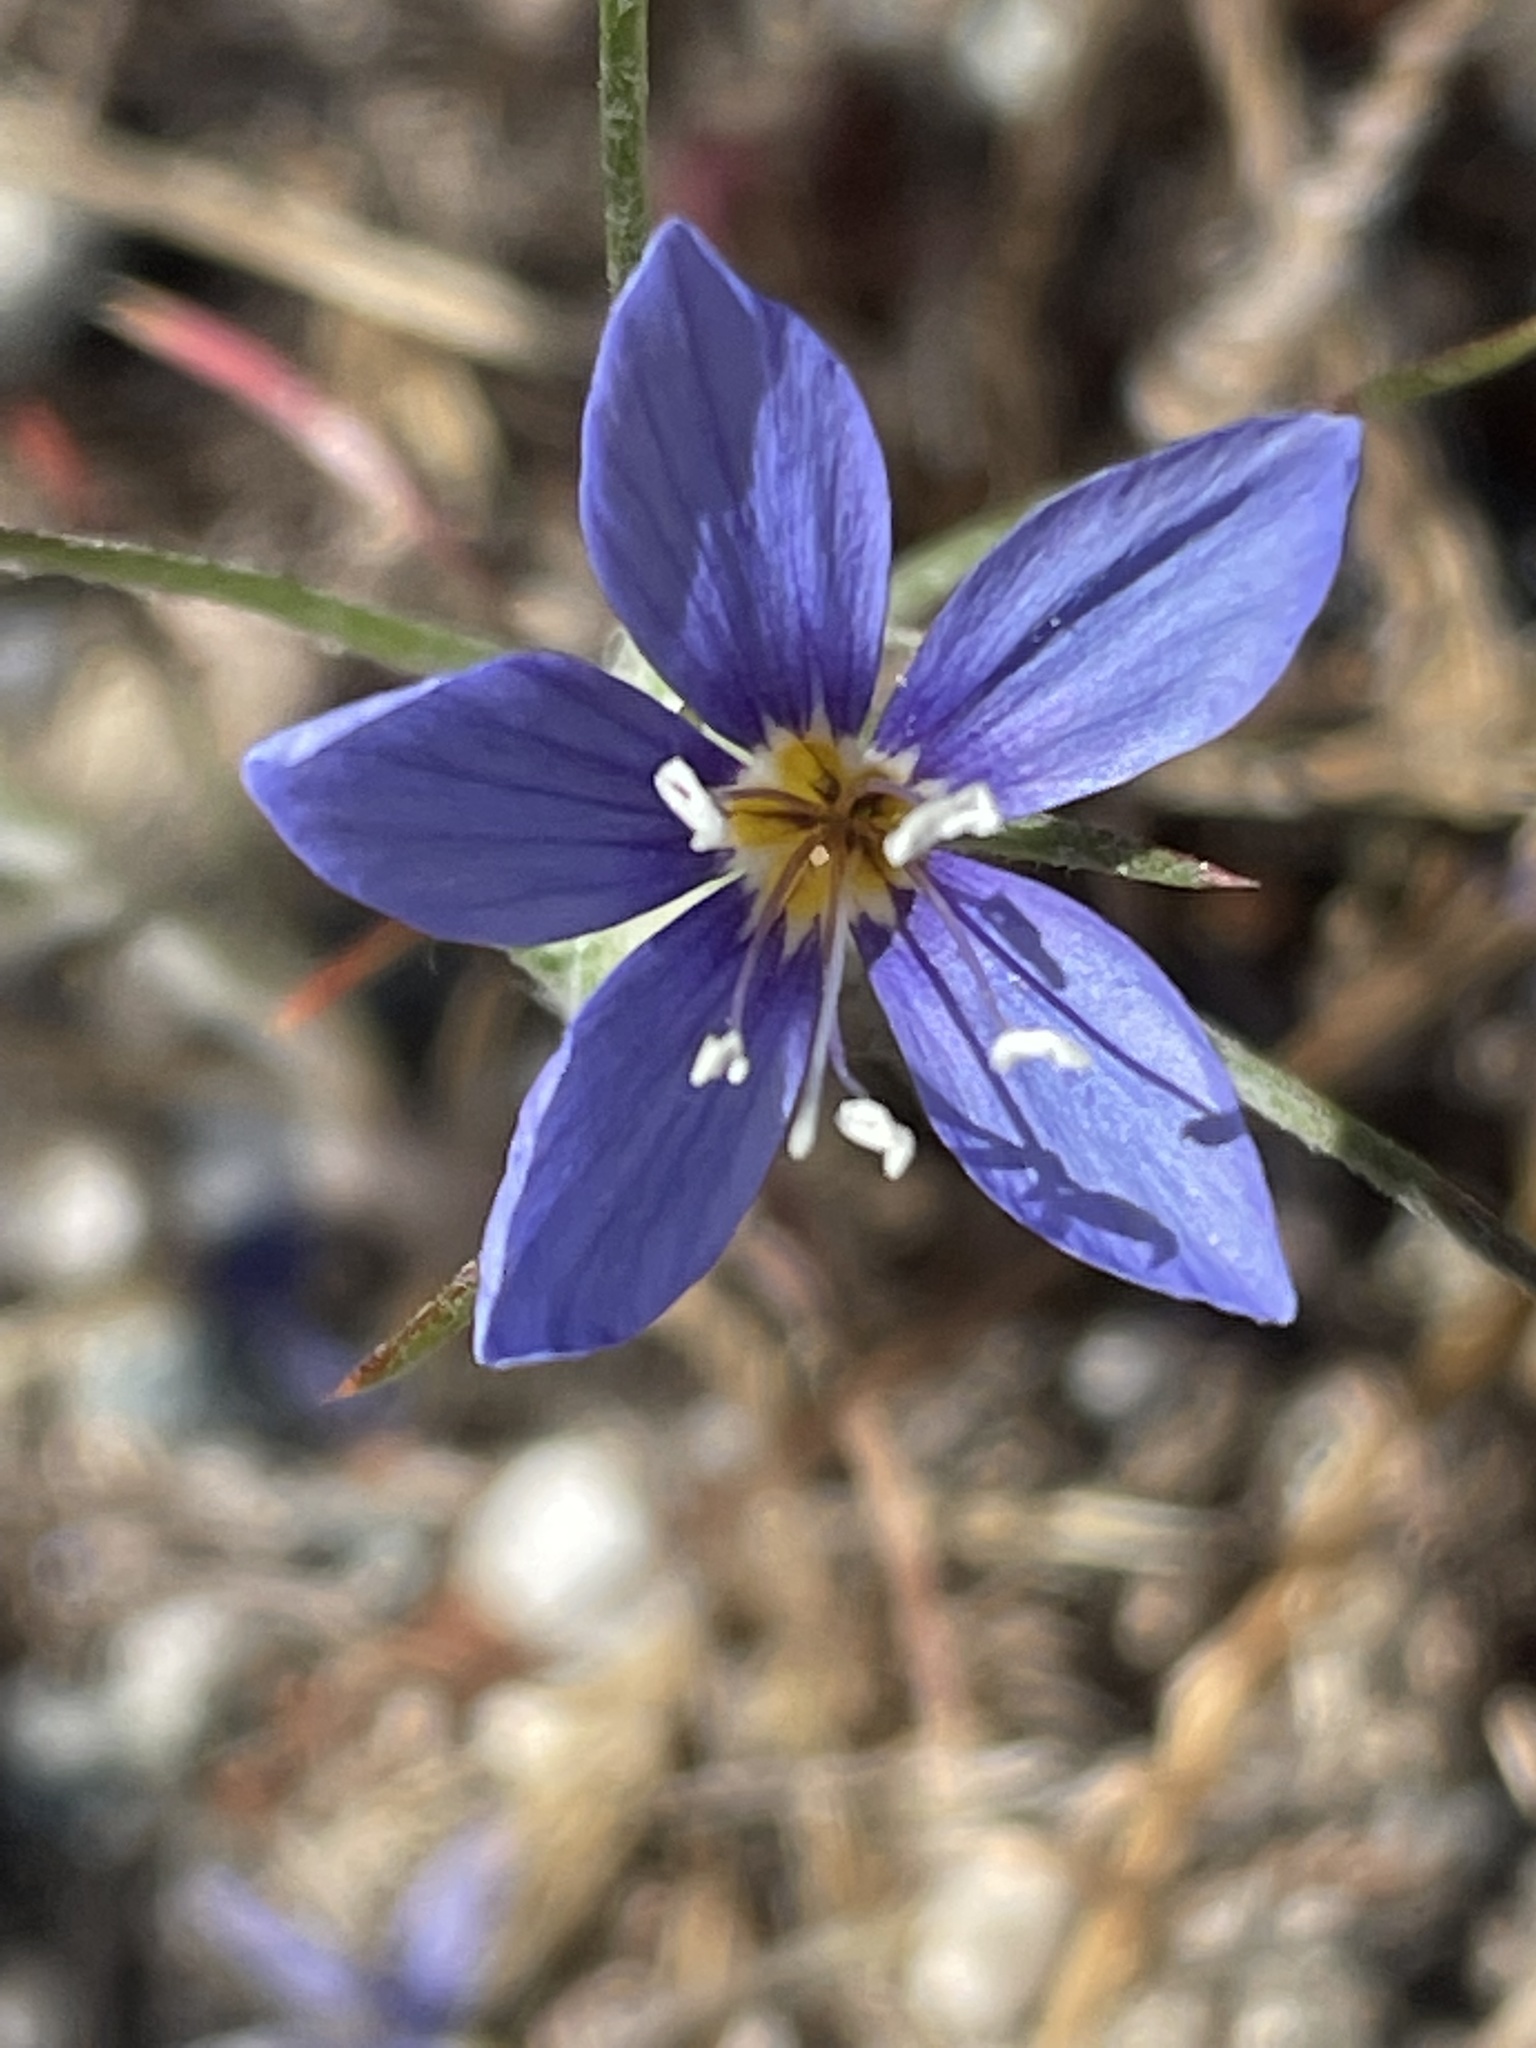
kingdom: Plantae
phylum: Tracheophyta
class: Magnoliopsida
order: Ericales
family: Polemoniaceae
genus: Eriastrum
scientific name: Eriastrum virgatum
